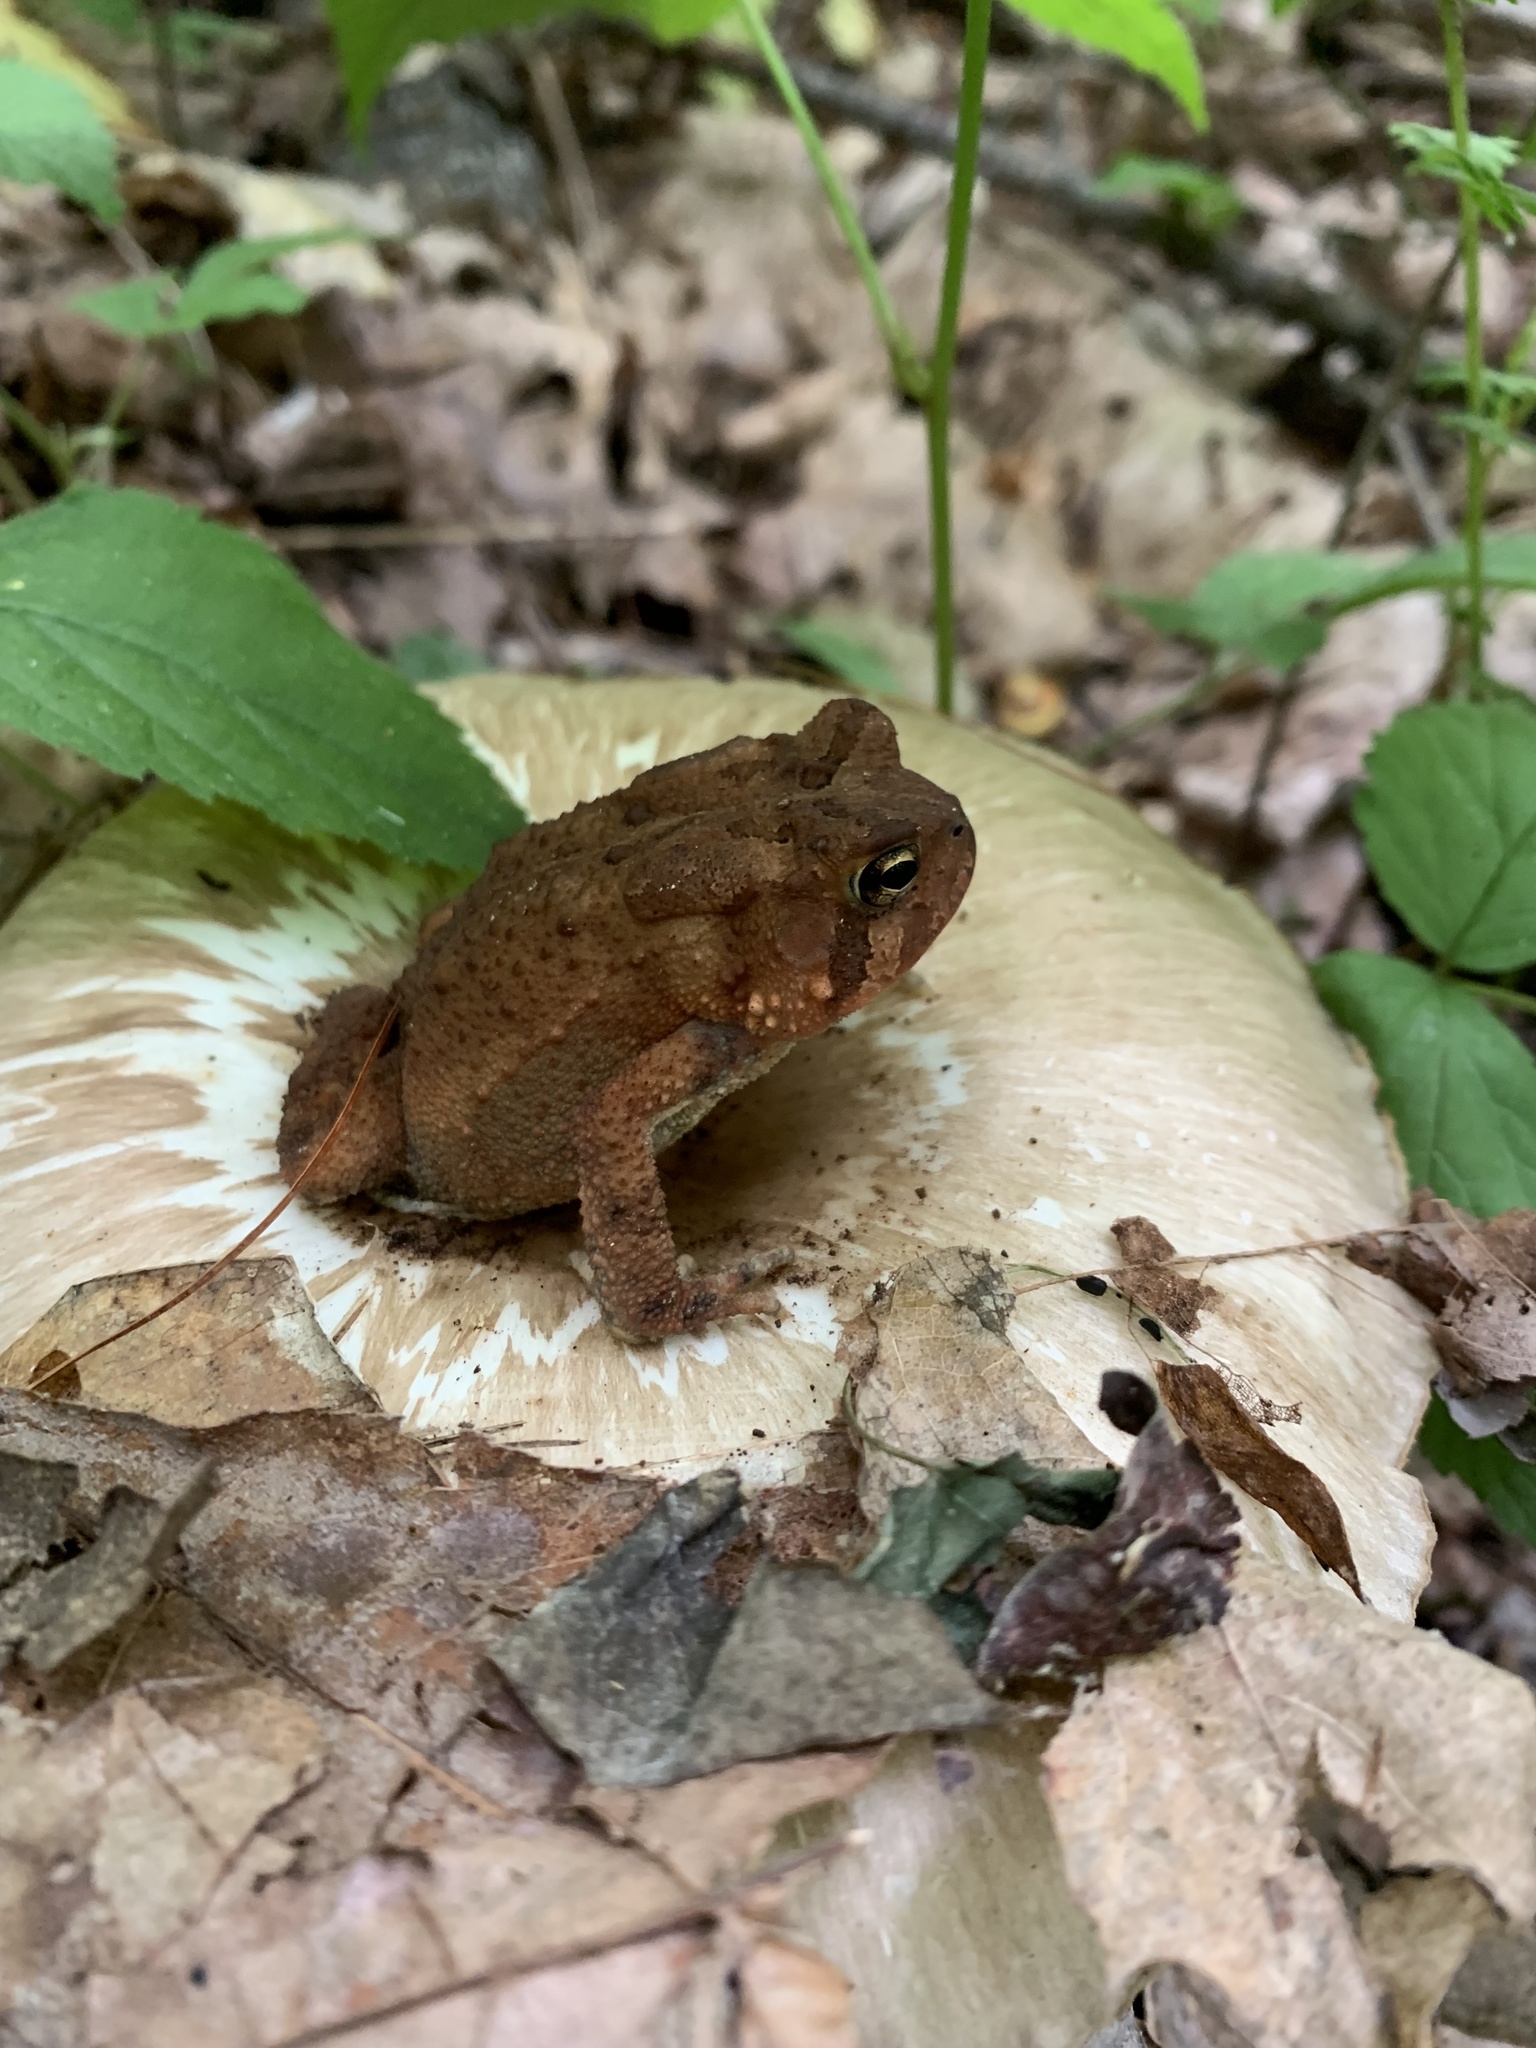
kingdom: Fungi
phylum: Basidiomycota
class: Agaricomycetes
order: Agaricales
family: Tricholomataceae
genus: Megacollybia
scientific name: Megacollybia rodmanii
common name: Eastern american platterful mushroom
